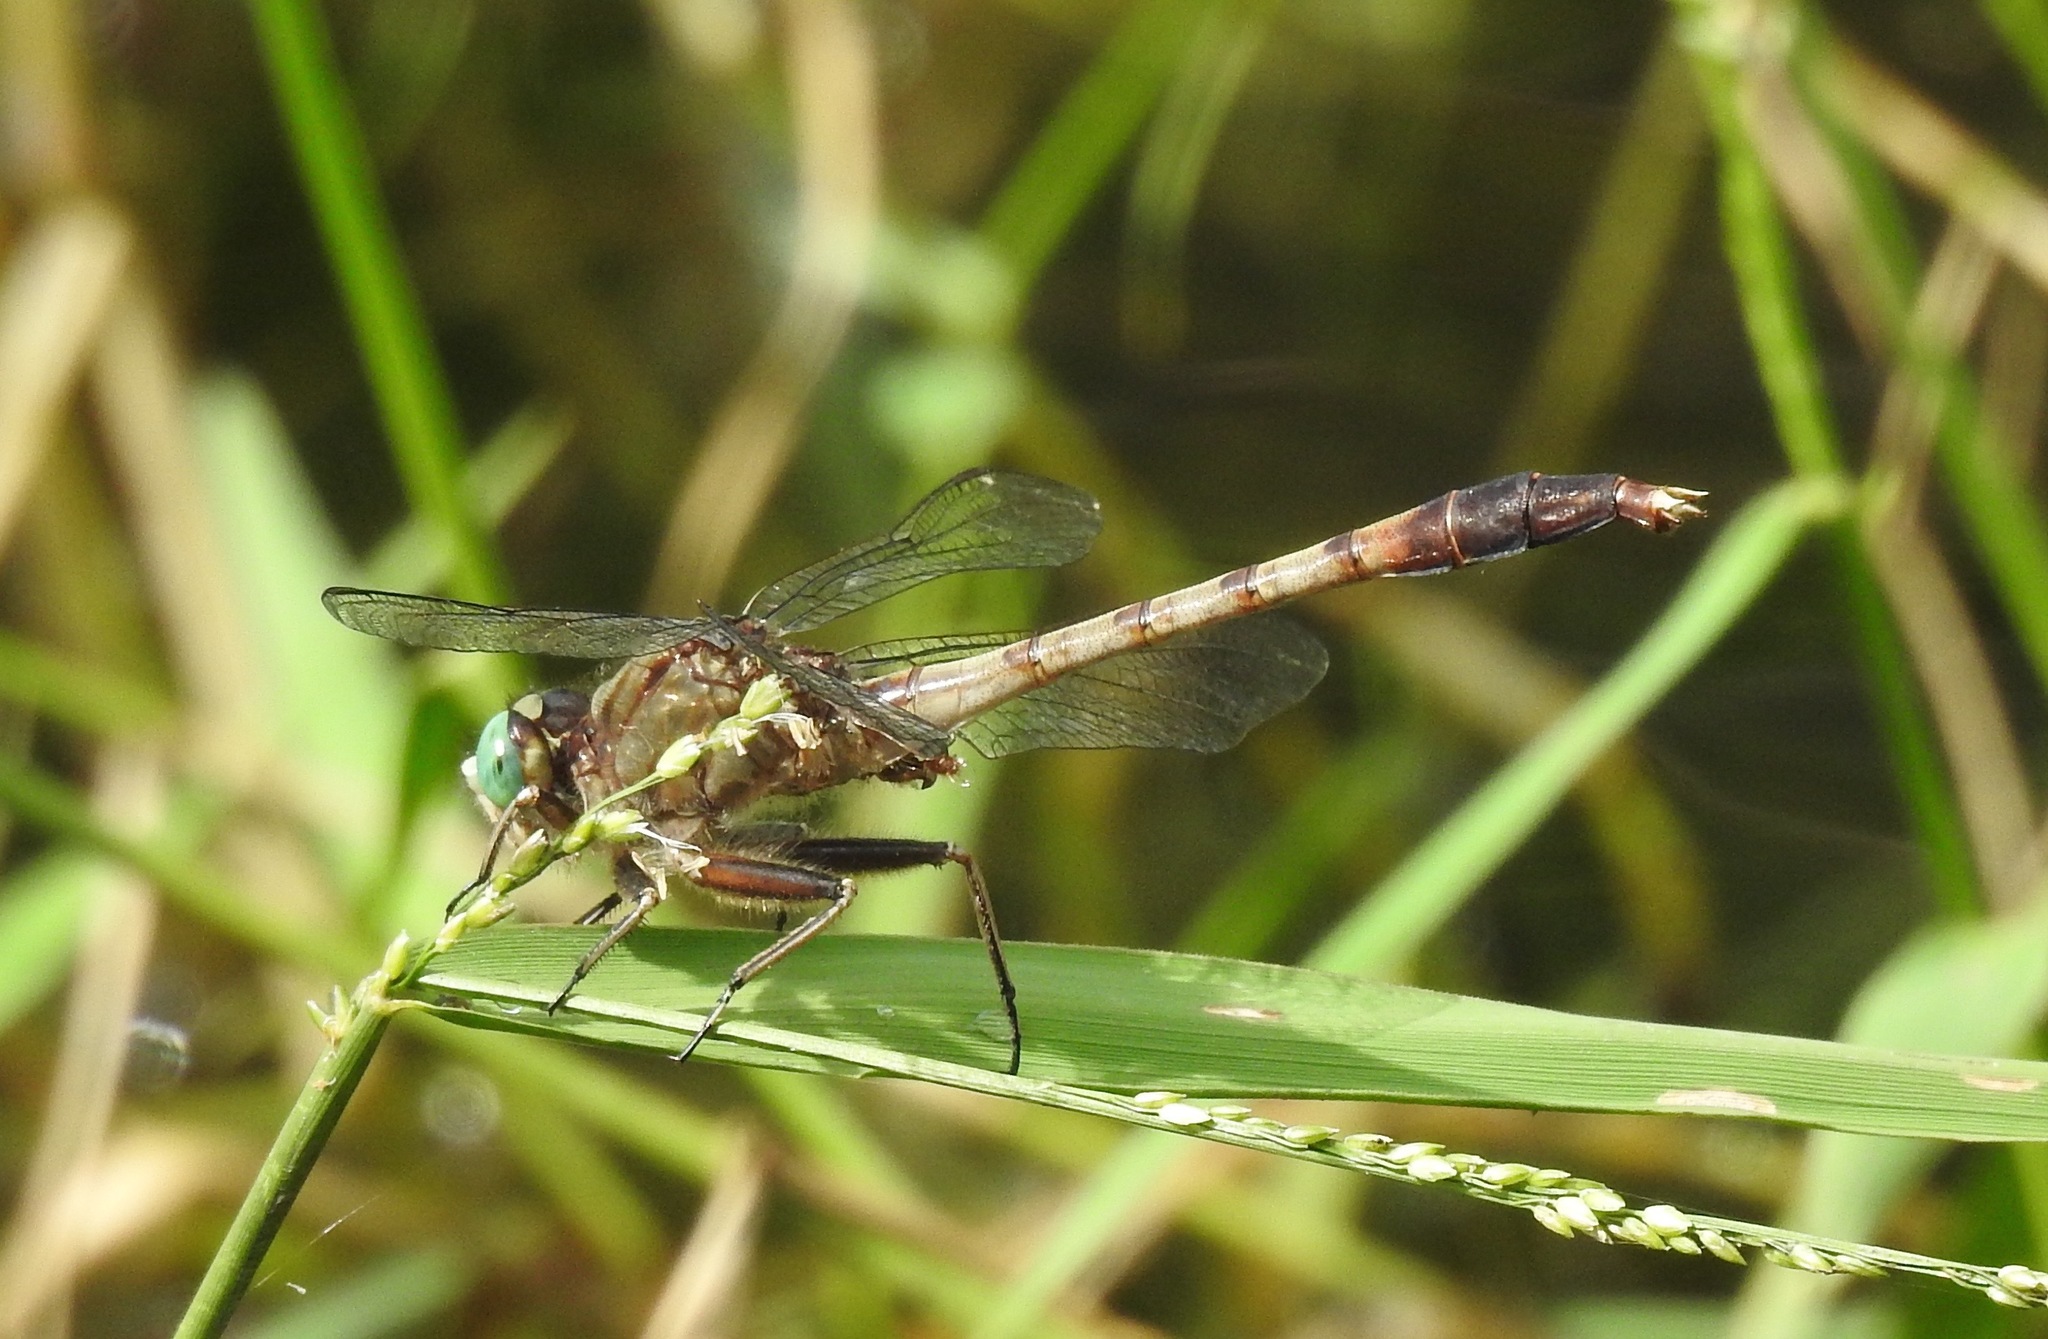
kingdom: Animalia
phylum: Arthropoda
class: Insecta
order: Odonata
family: Gomphidae
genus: Arigomphus
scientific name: Arigomphus pallidus
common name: Gray-green clubtail
